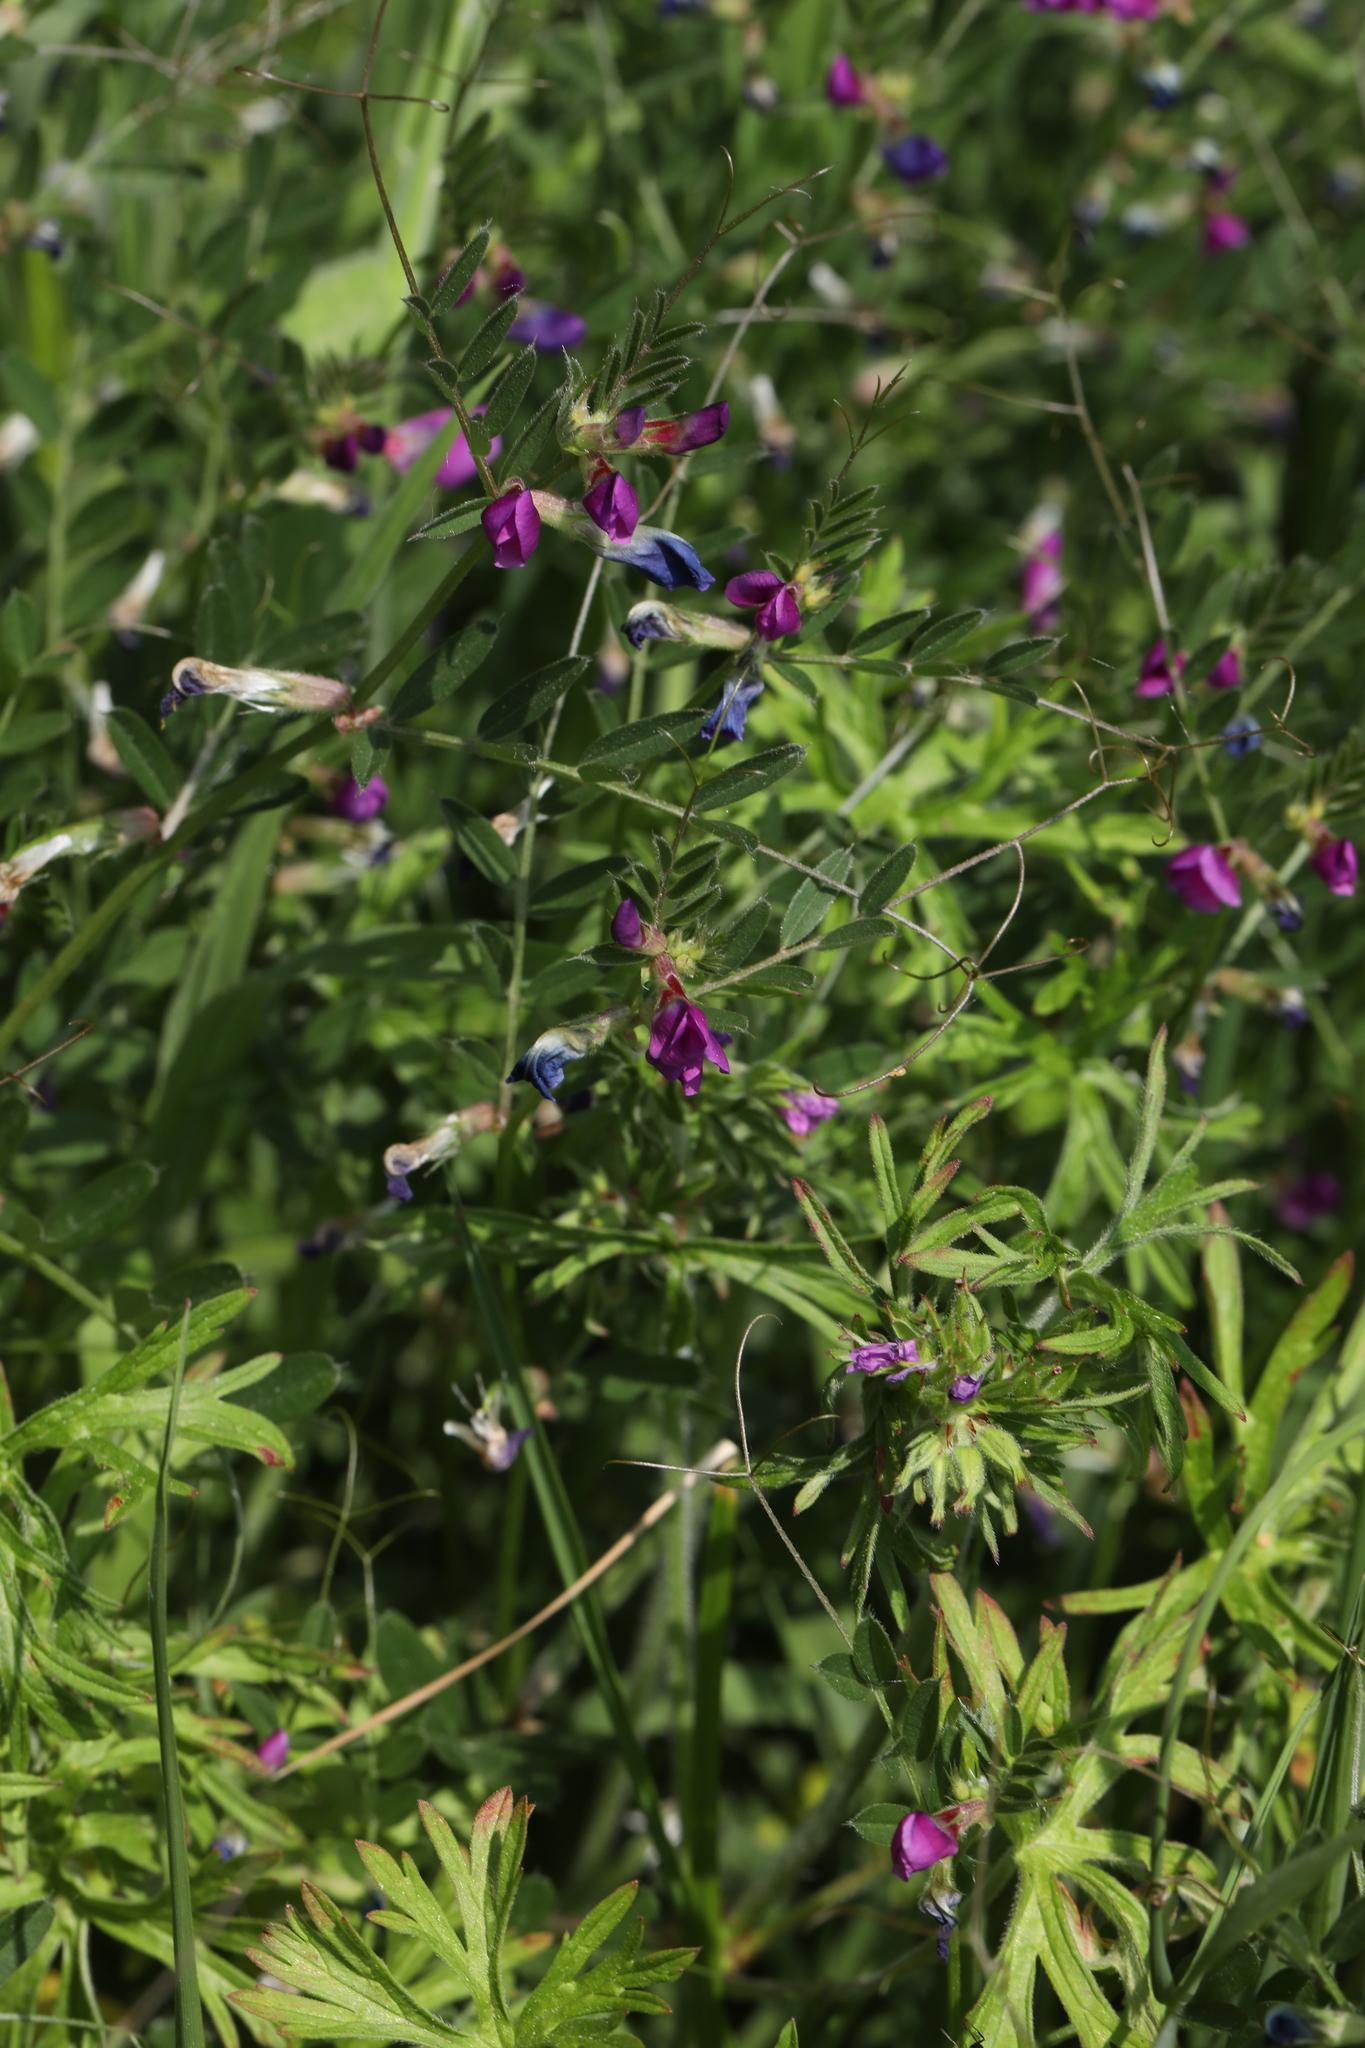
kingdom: Plantae
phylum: Tracheophyta
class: Magnoliopsida
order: Fabales
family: Fabaceae
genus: Vicia
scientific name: Vicia sativa
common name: Garden vetch
